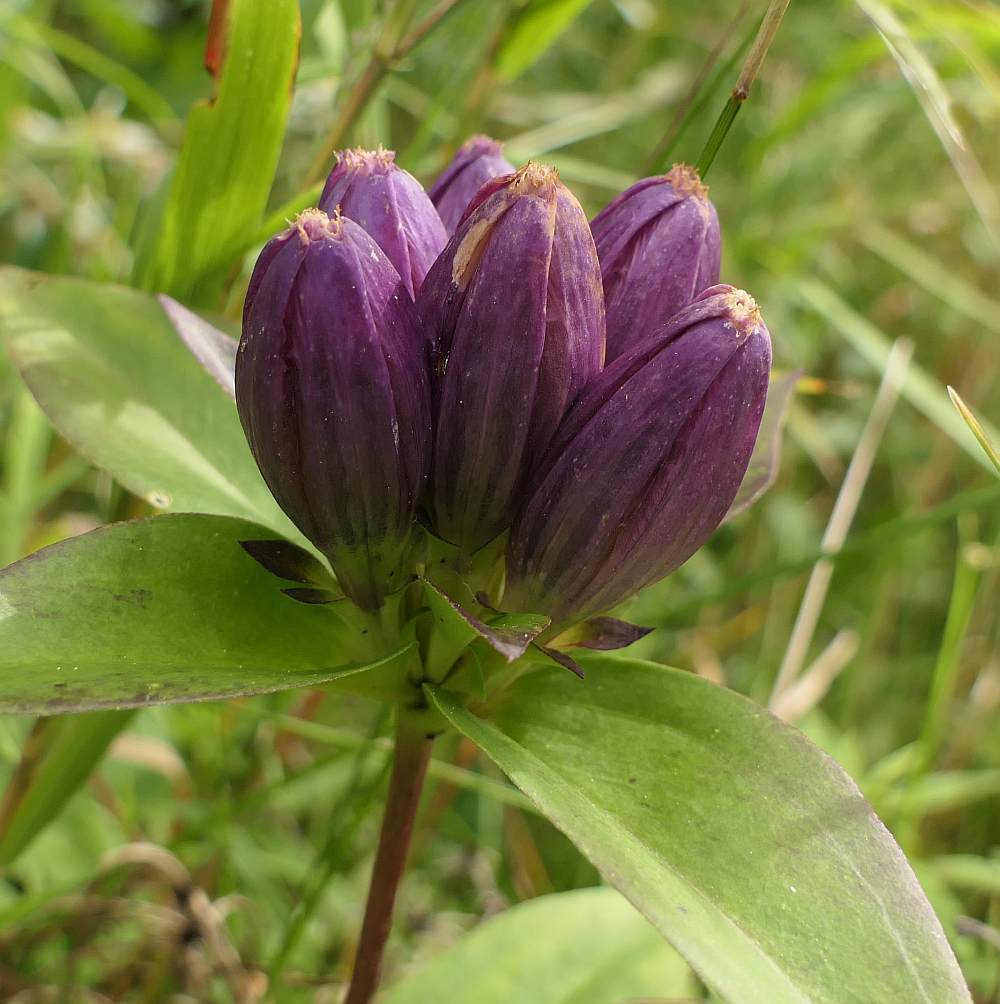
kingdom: Plantae
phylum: Tracheophyta
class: Magnoliopsida
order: Gentianales
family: Gentianaceae
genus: Gentiana
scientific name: Gentiana andrewsii
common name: Bottle gentian
